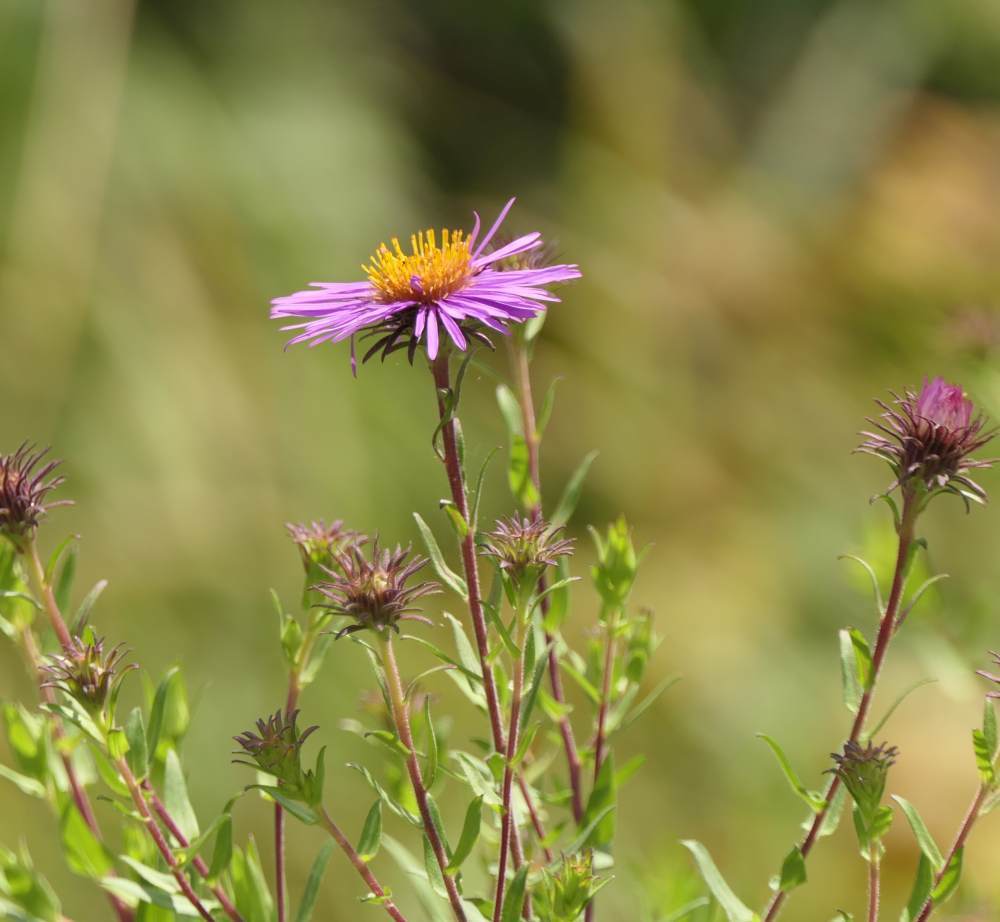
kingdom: Plantae
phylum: Tracheophyta
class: Magnoliopsida
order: Asterales
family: Asteraceae
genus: Symphyotrichum
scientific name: Symphyotrichum novae-angliae
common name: Michaelmas daisy
